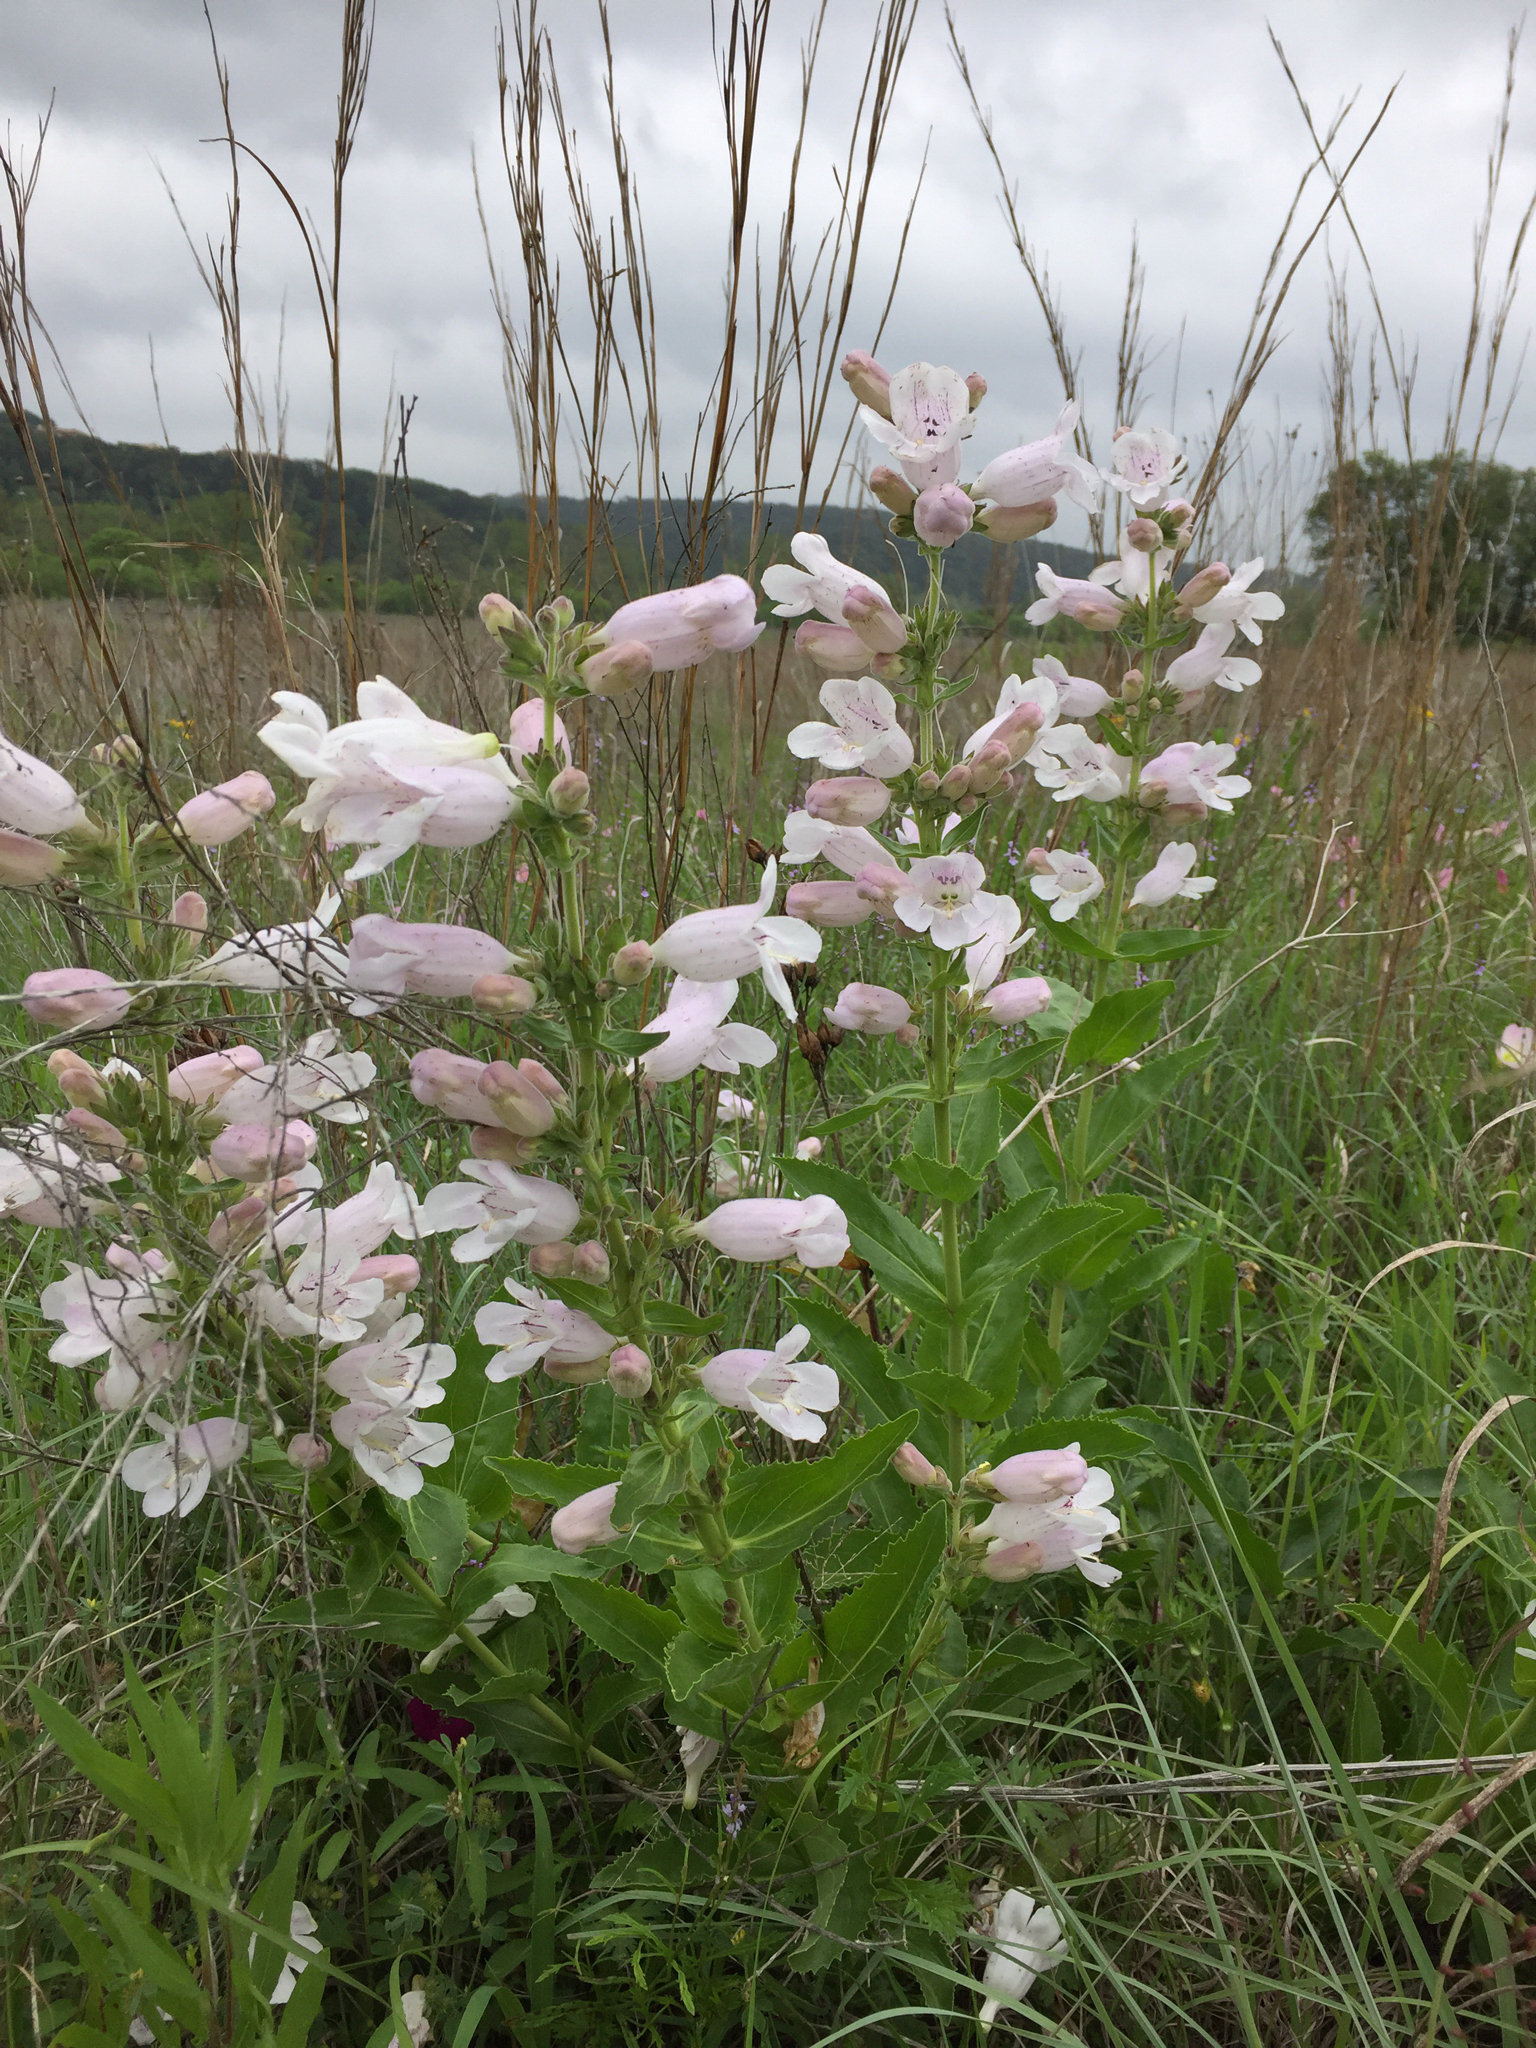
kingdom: Plantae
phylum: Tracheophyta
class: Magnoliopsida
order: Lamiales
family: Plantaginaceae
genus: Penstemon
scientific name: Penstemon cobaea
